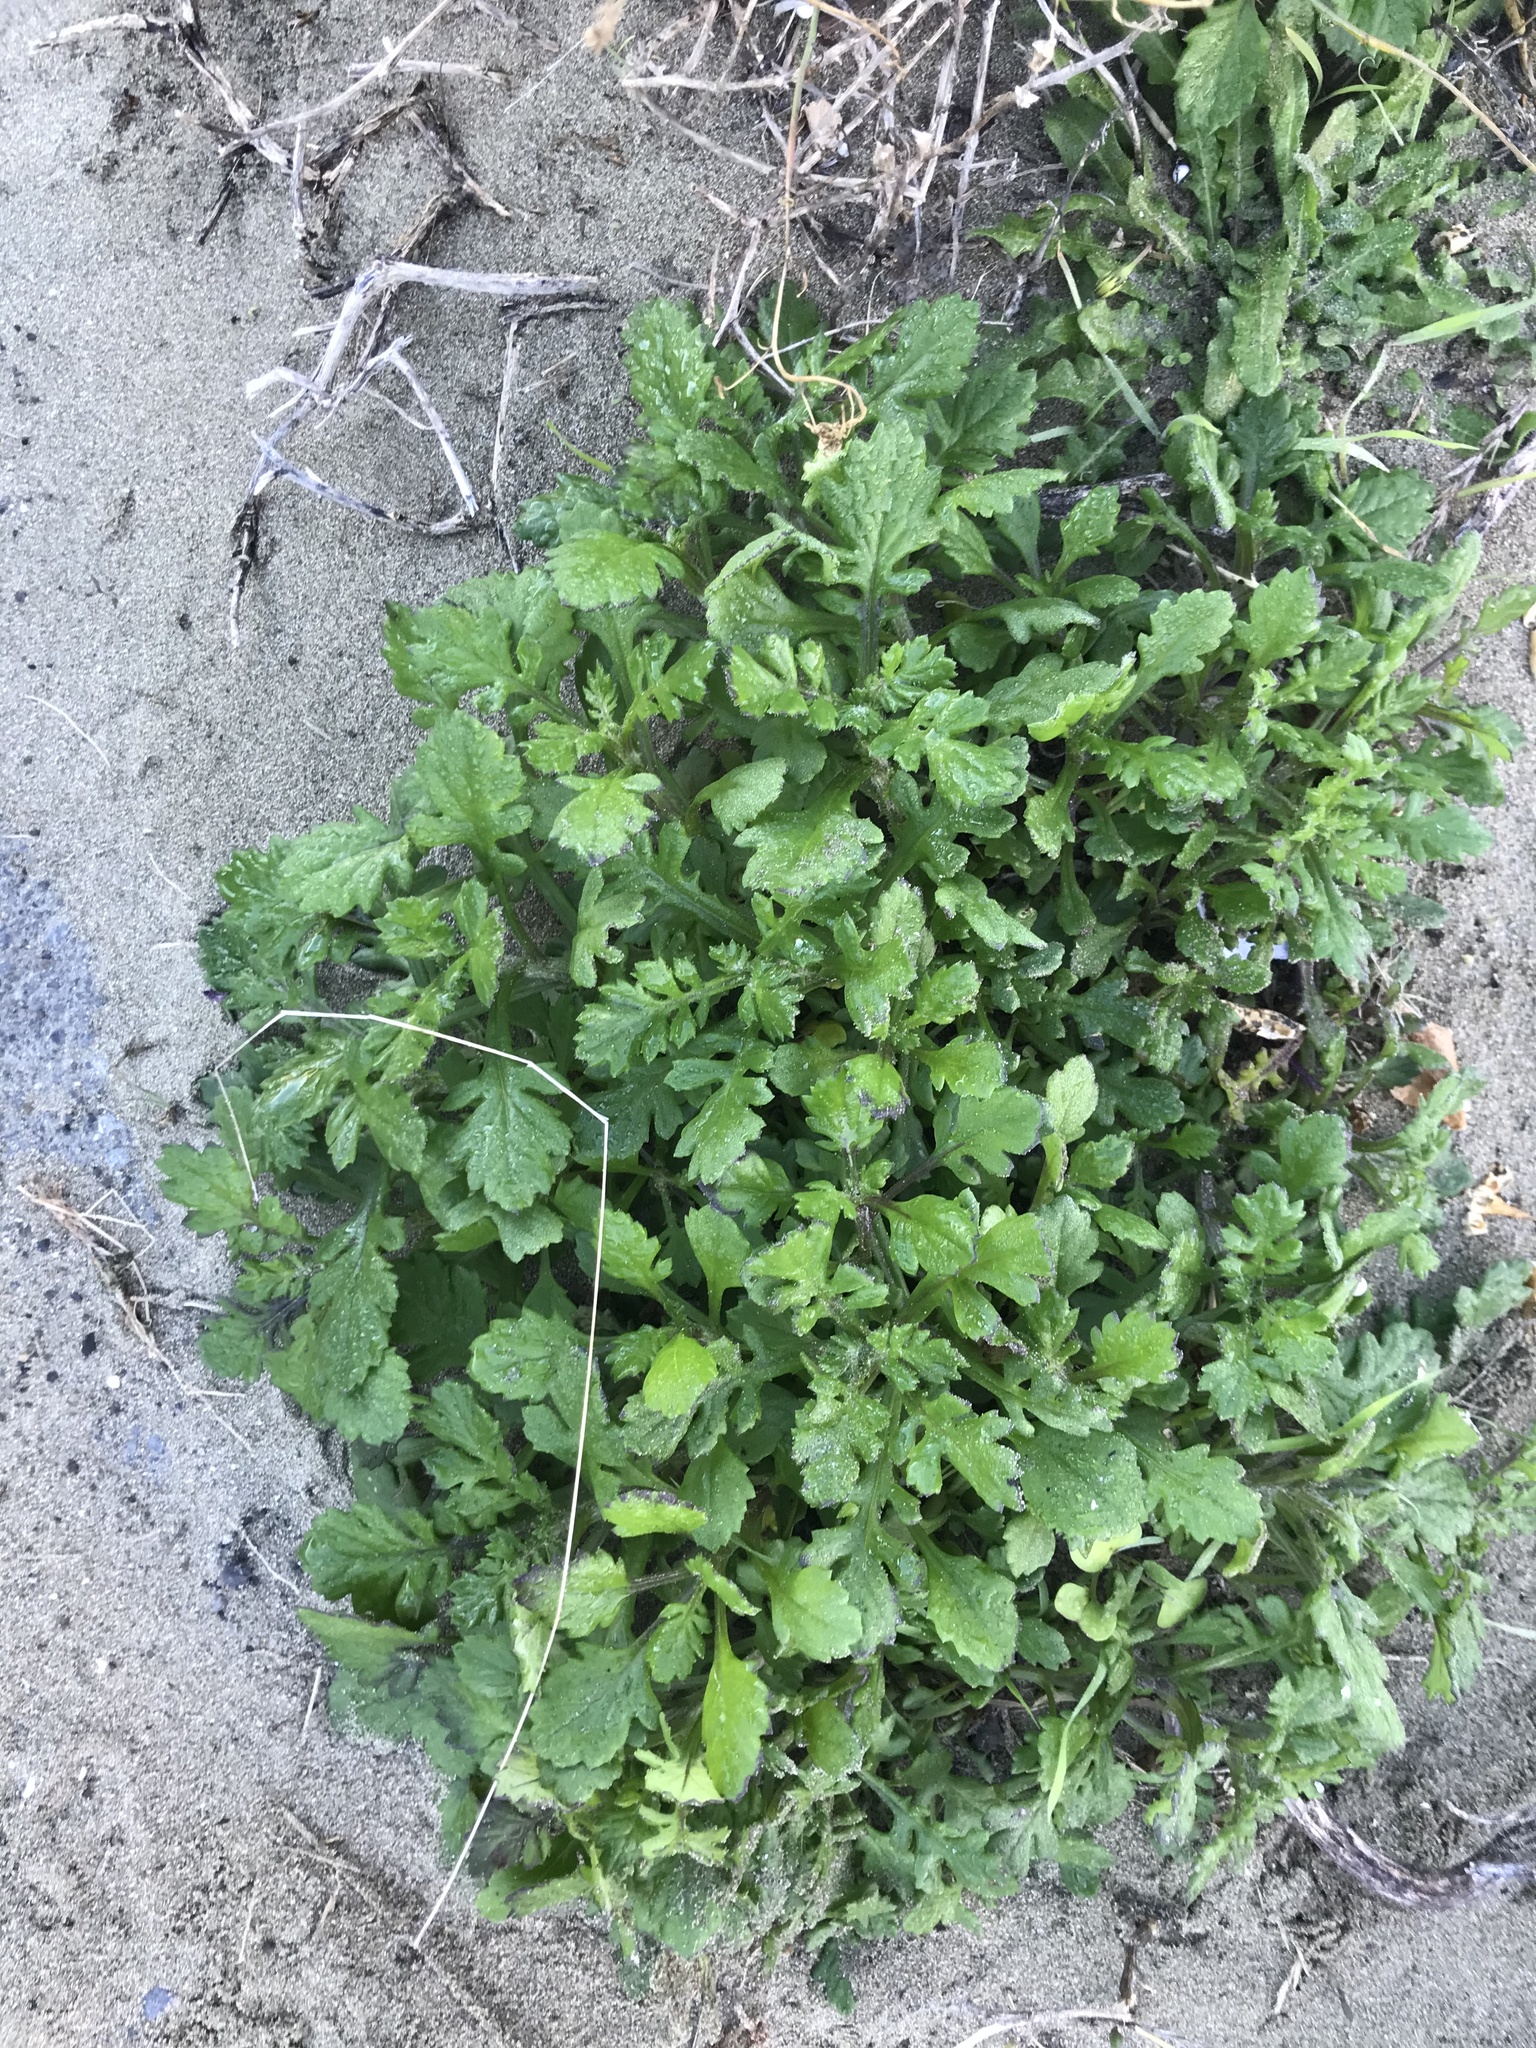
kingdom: Plantae
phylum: Tracheophyta
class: Magnoliopsida
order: Asterales
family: Asteraceae
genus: Senecio
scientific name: Senecio elegans
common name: Purple groundsel
